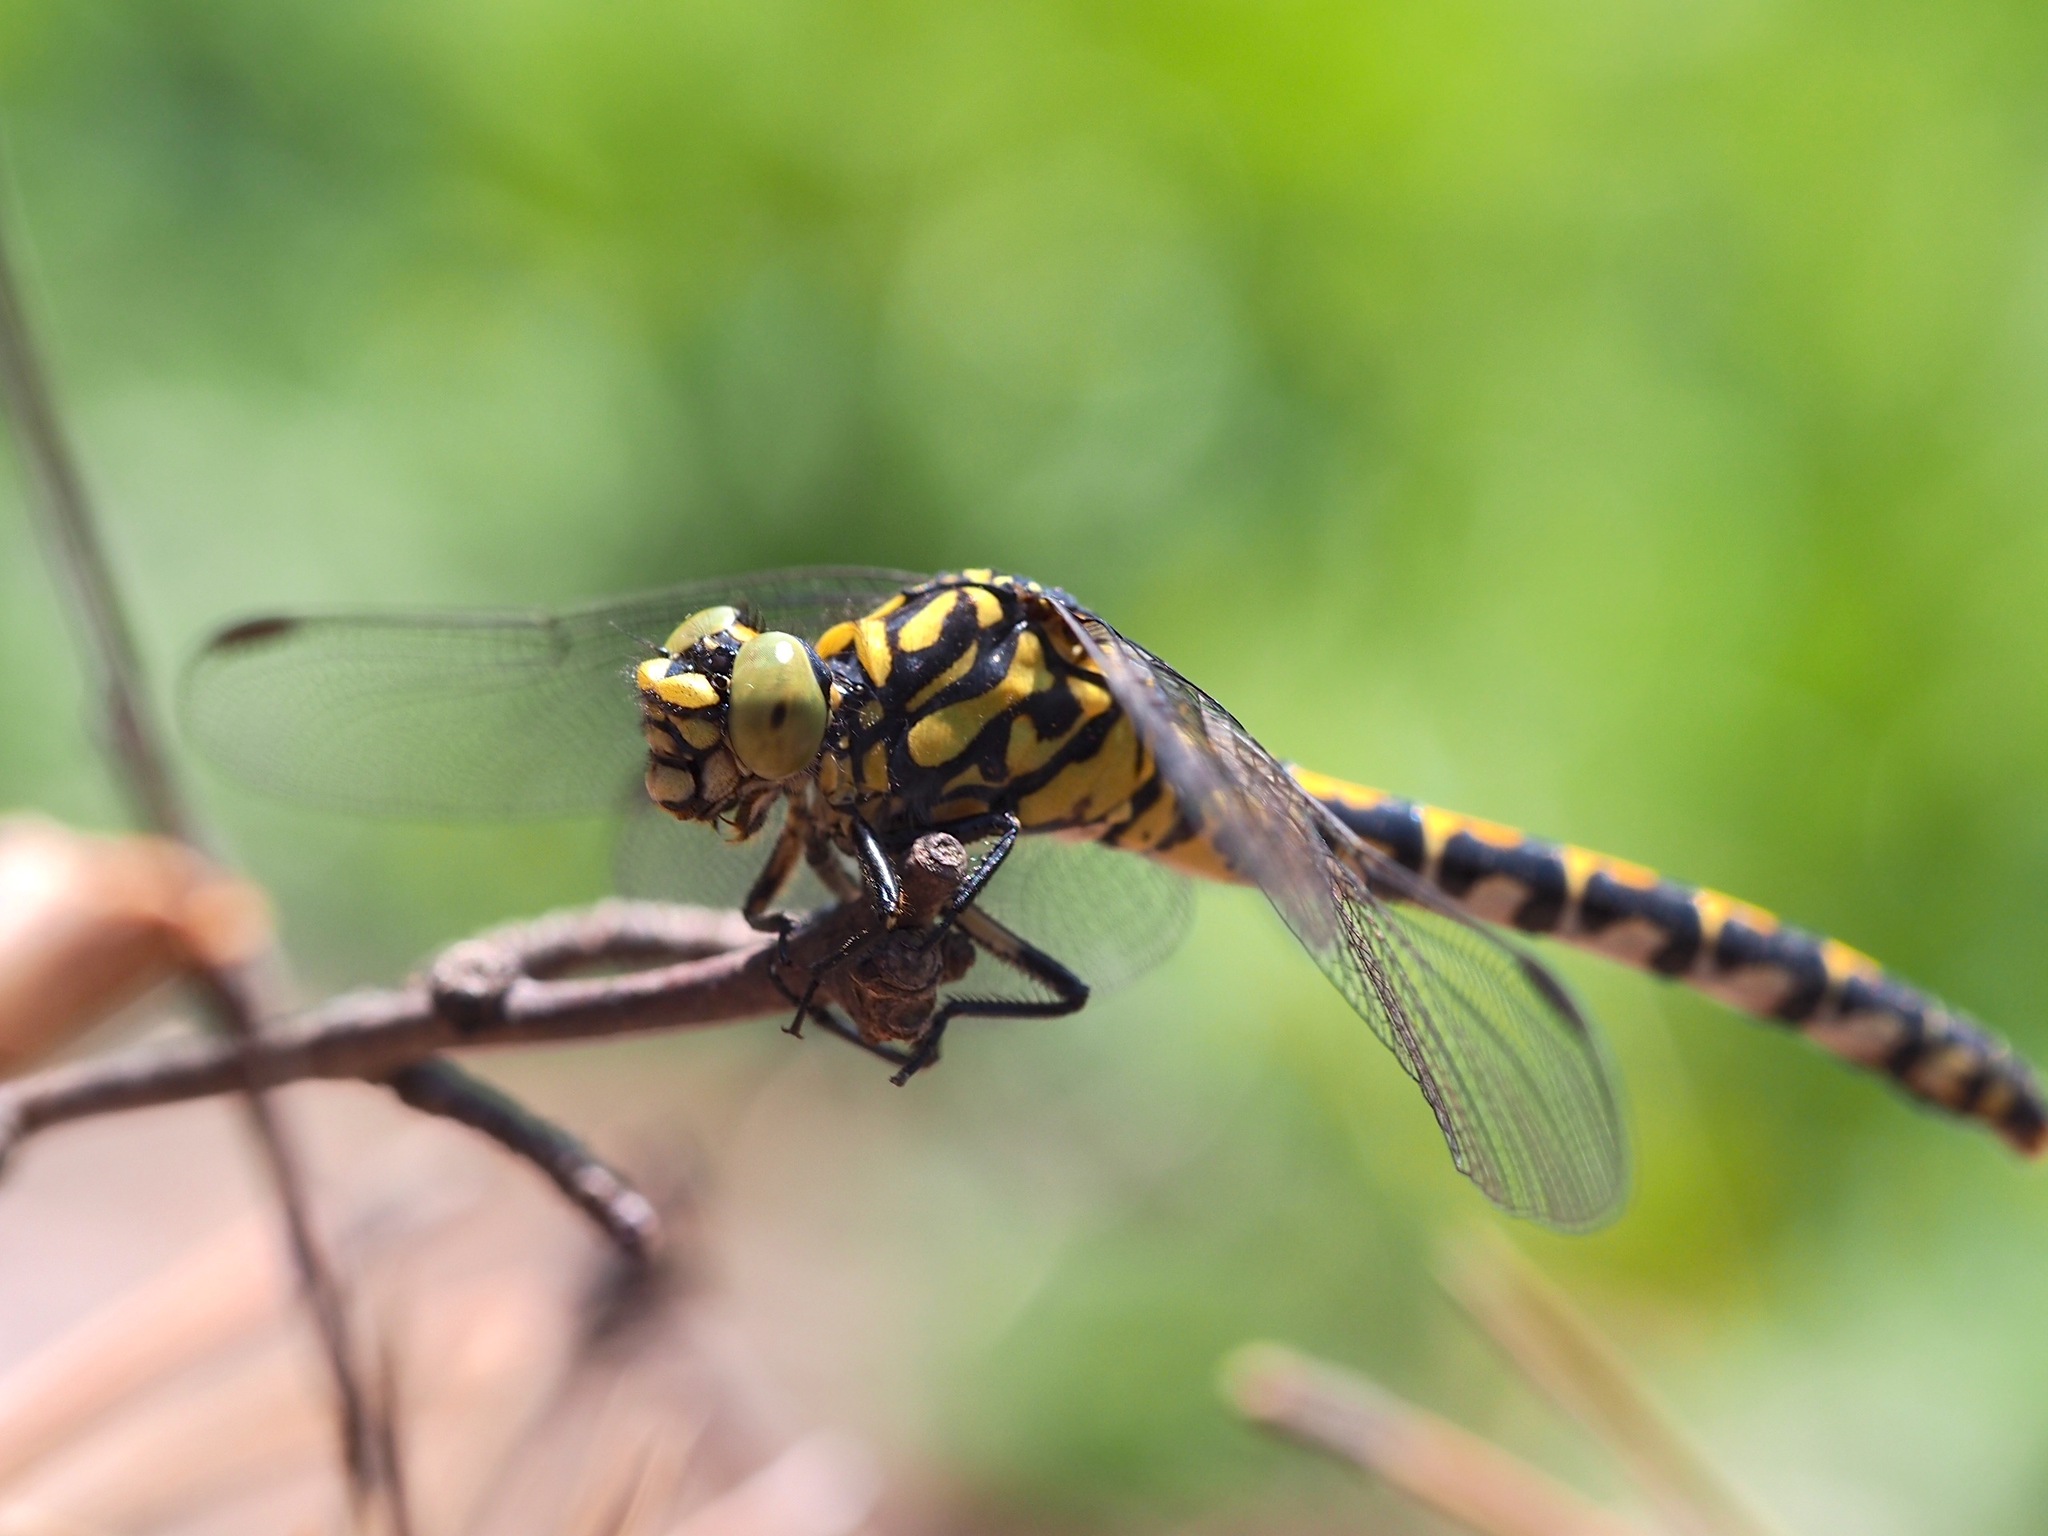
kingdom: Animalia
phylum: Arthropoda
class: Insecta
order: Odonata
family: Gomphidae
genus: Onychogomphus
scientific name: Onychogomphus forcipatus
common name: Small pincertail
